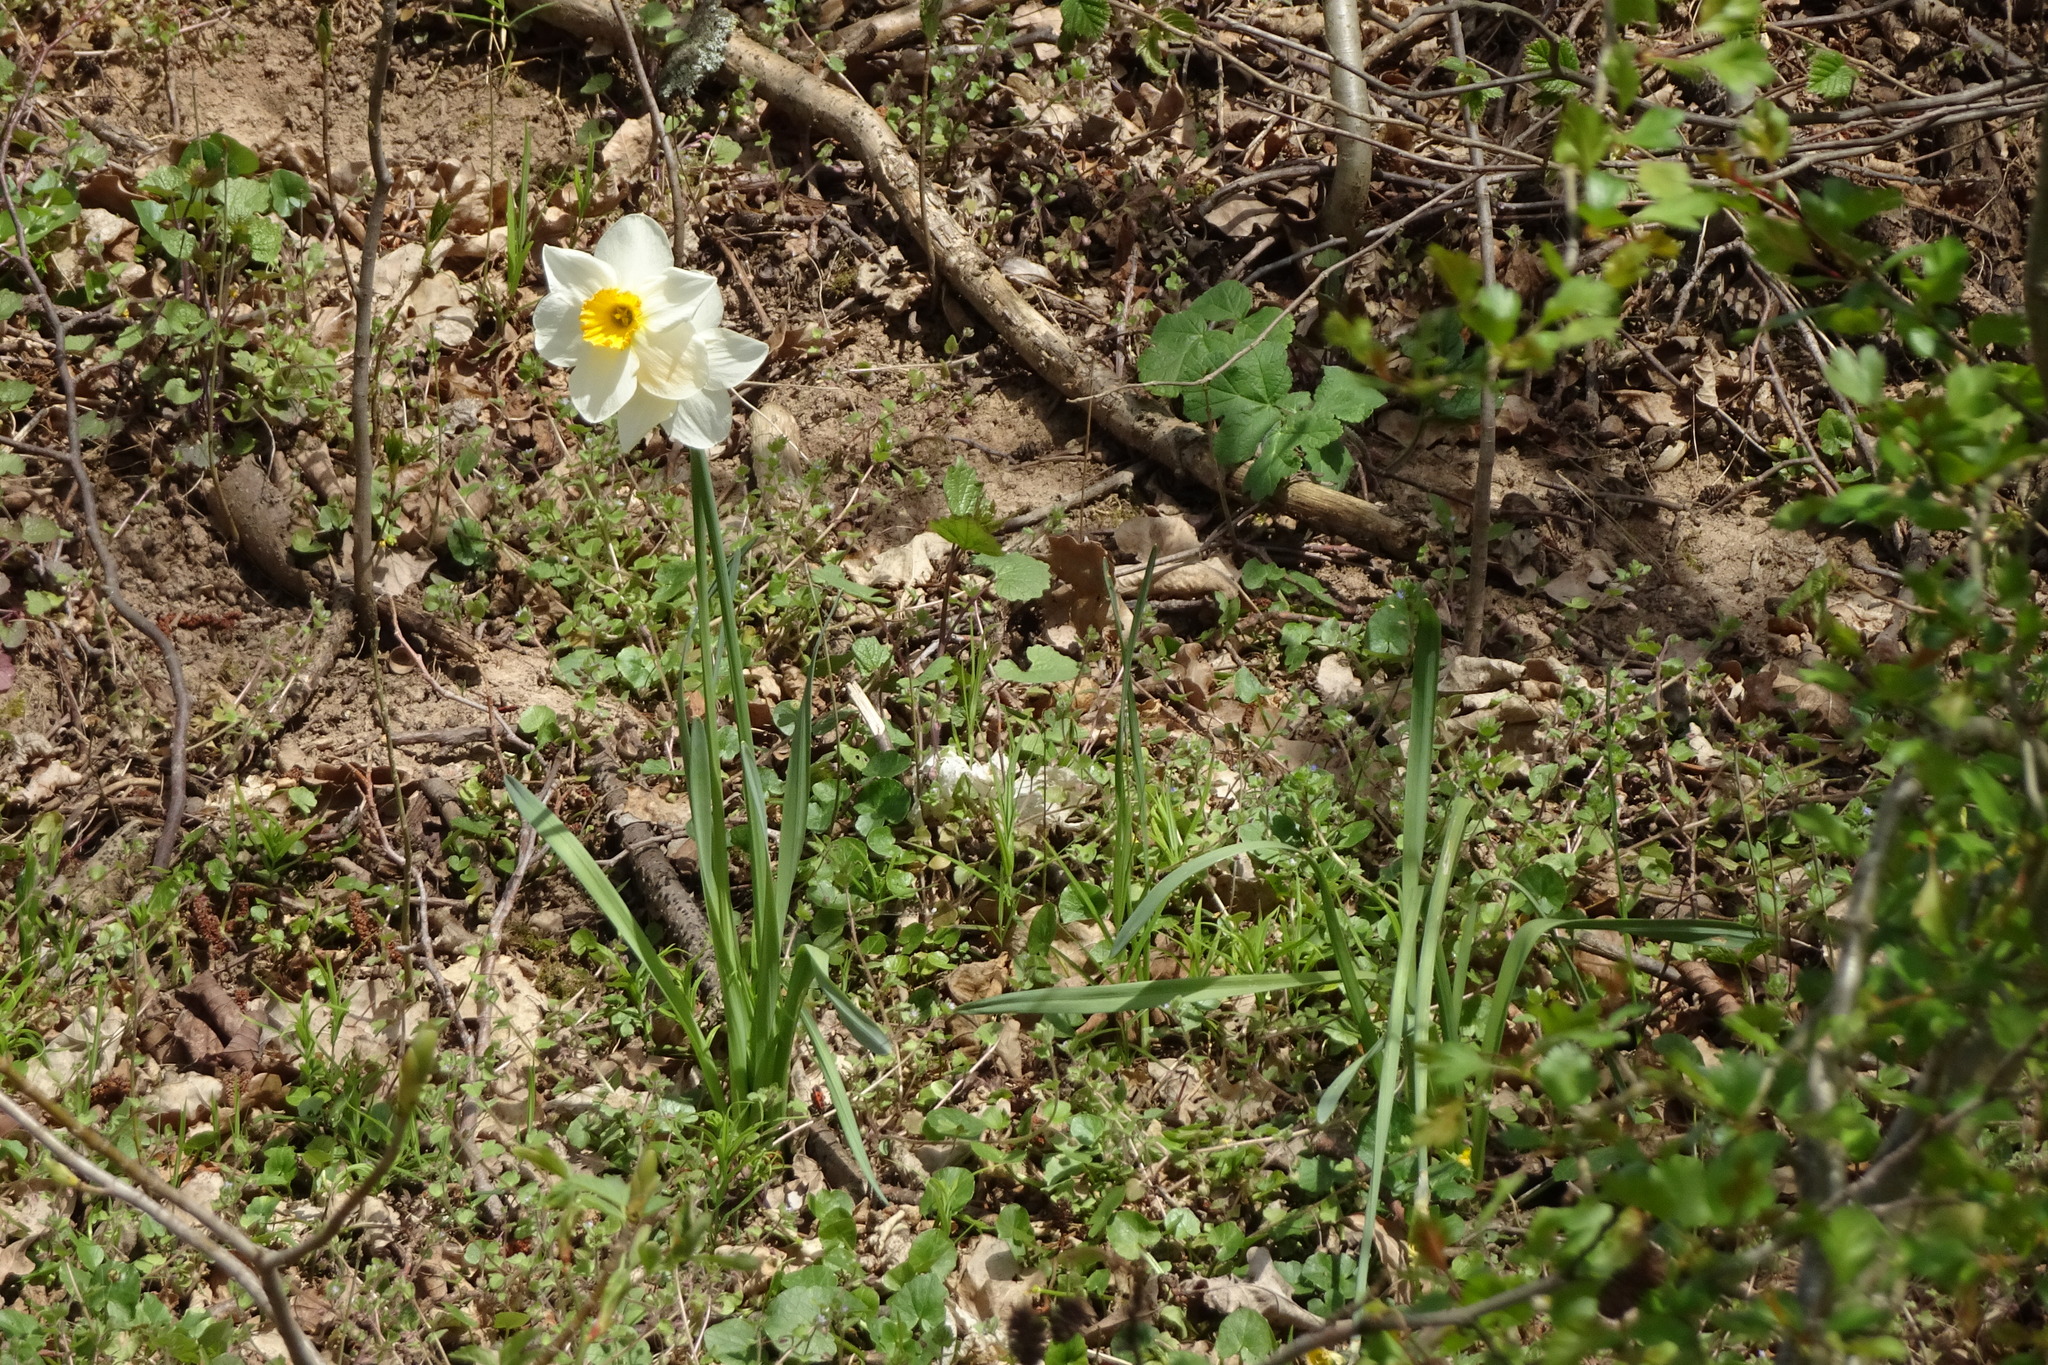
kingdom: Plantae
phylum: Tracheophyta
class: Liliopsida
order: Asparagales
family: Amaryllidaceae
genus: Narcissus
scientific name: Narcissus poeticus
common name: Pheasant's-eye daffodil
